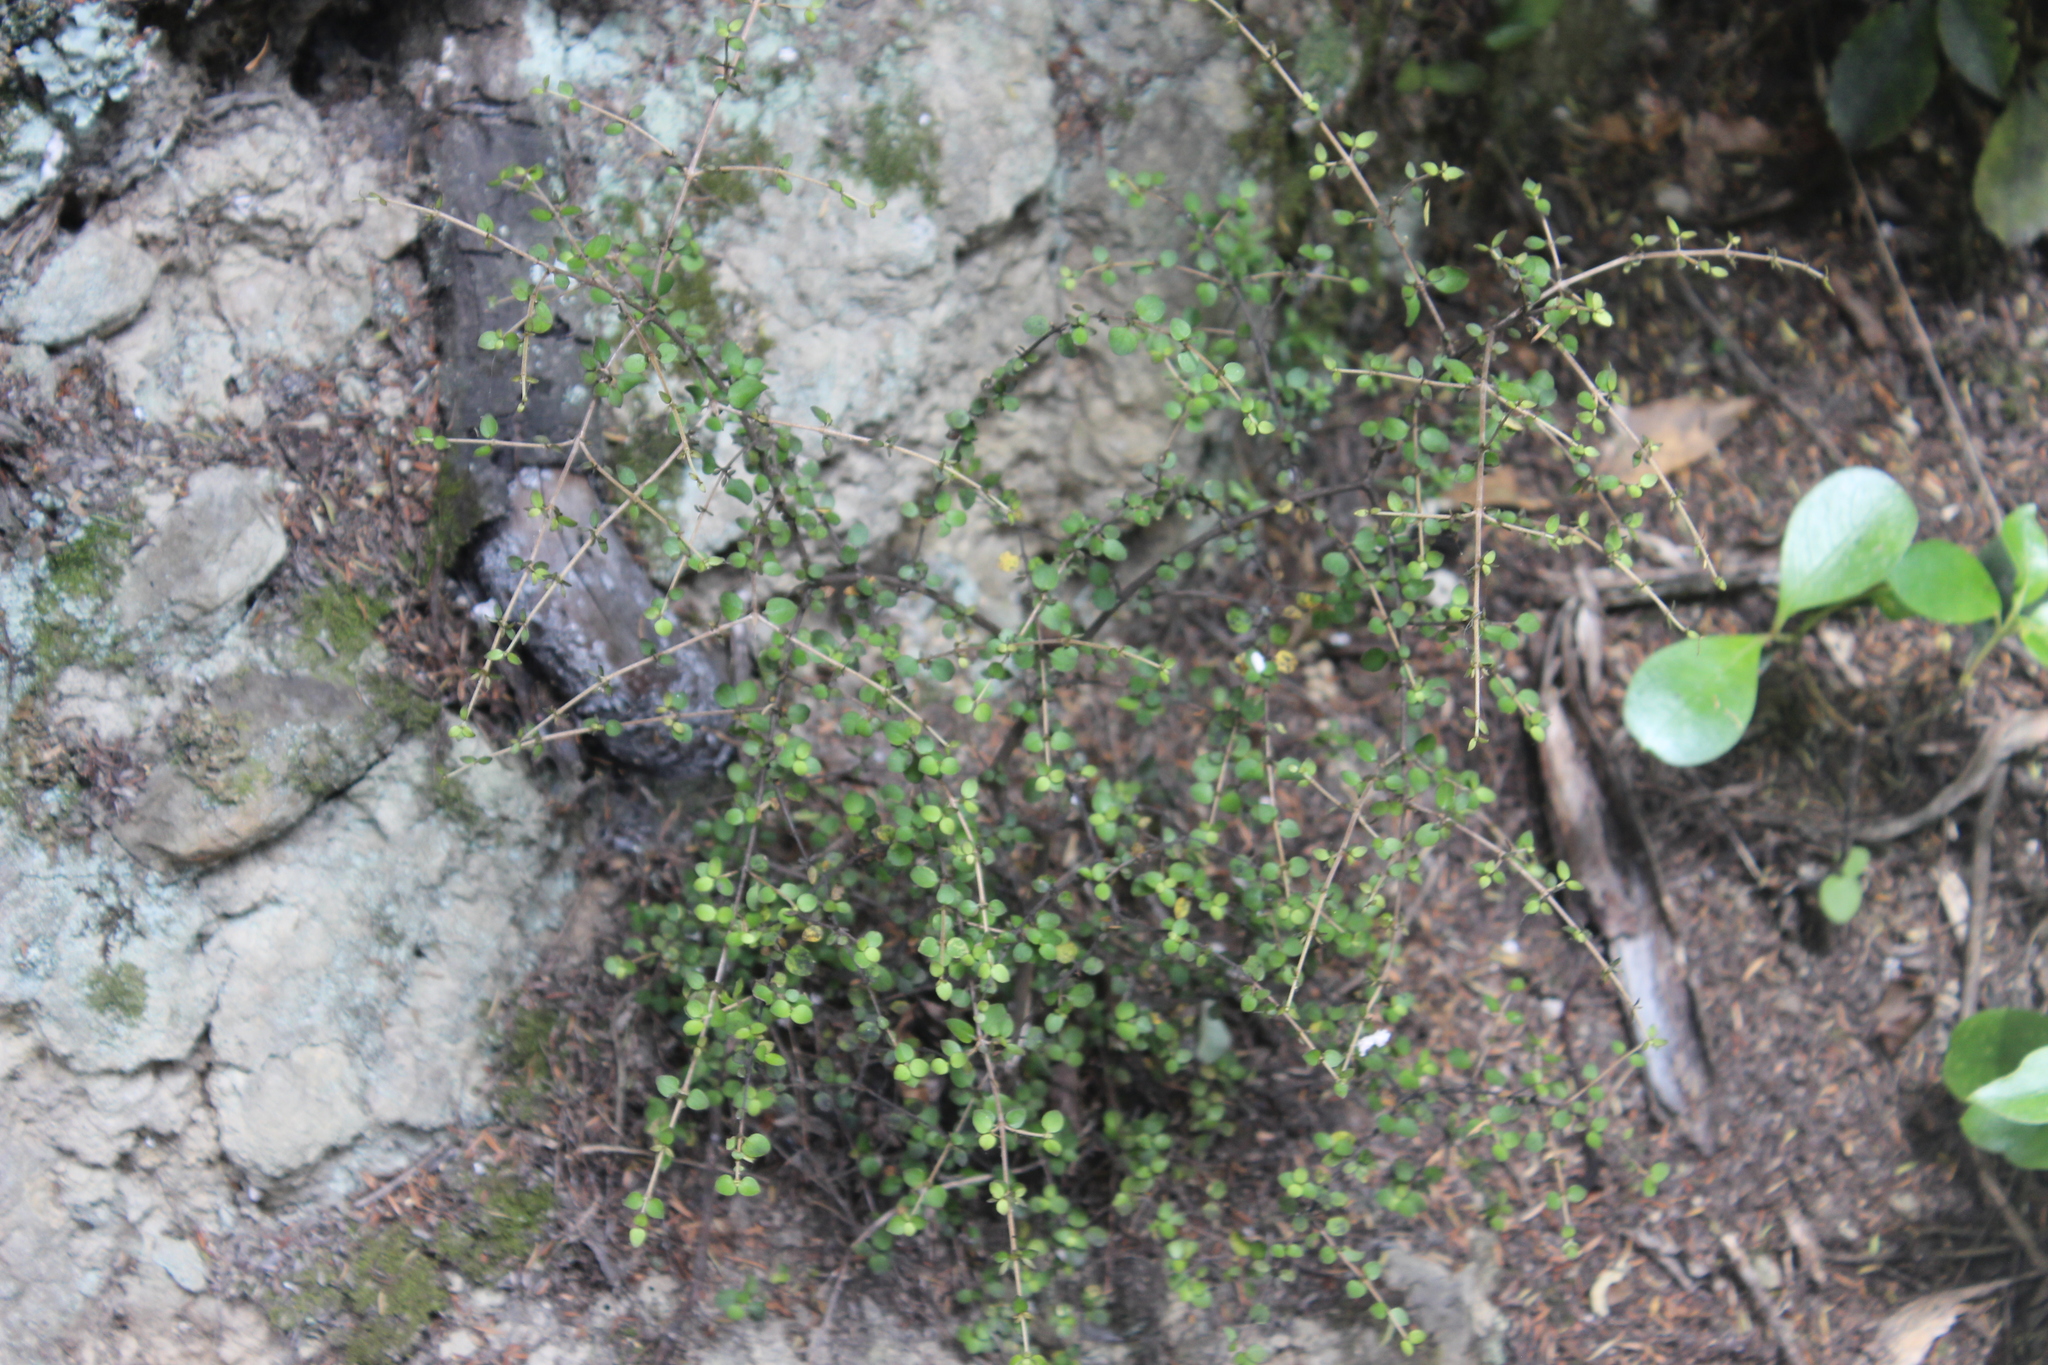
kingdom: Plantae
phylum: Tracheophyta
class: Magnoliopsida
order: Gentianales
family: Rubiaceae
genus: Coprosma
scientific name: Coprosma rhamnoides
